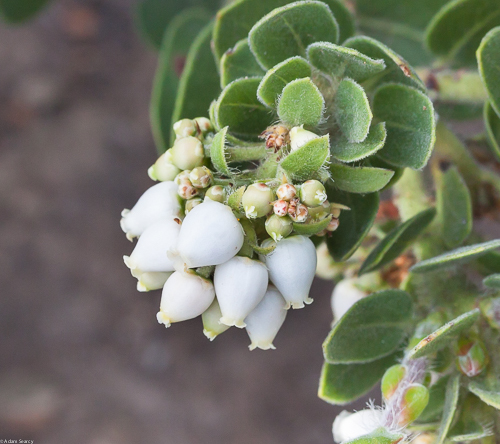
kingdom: Plantae
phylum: Tracheophyta
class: Magnoliopsida
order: Ericales
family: Ericaceae
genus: Arctostaphylos
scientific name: Arctostaphylos viridissima
